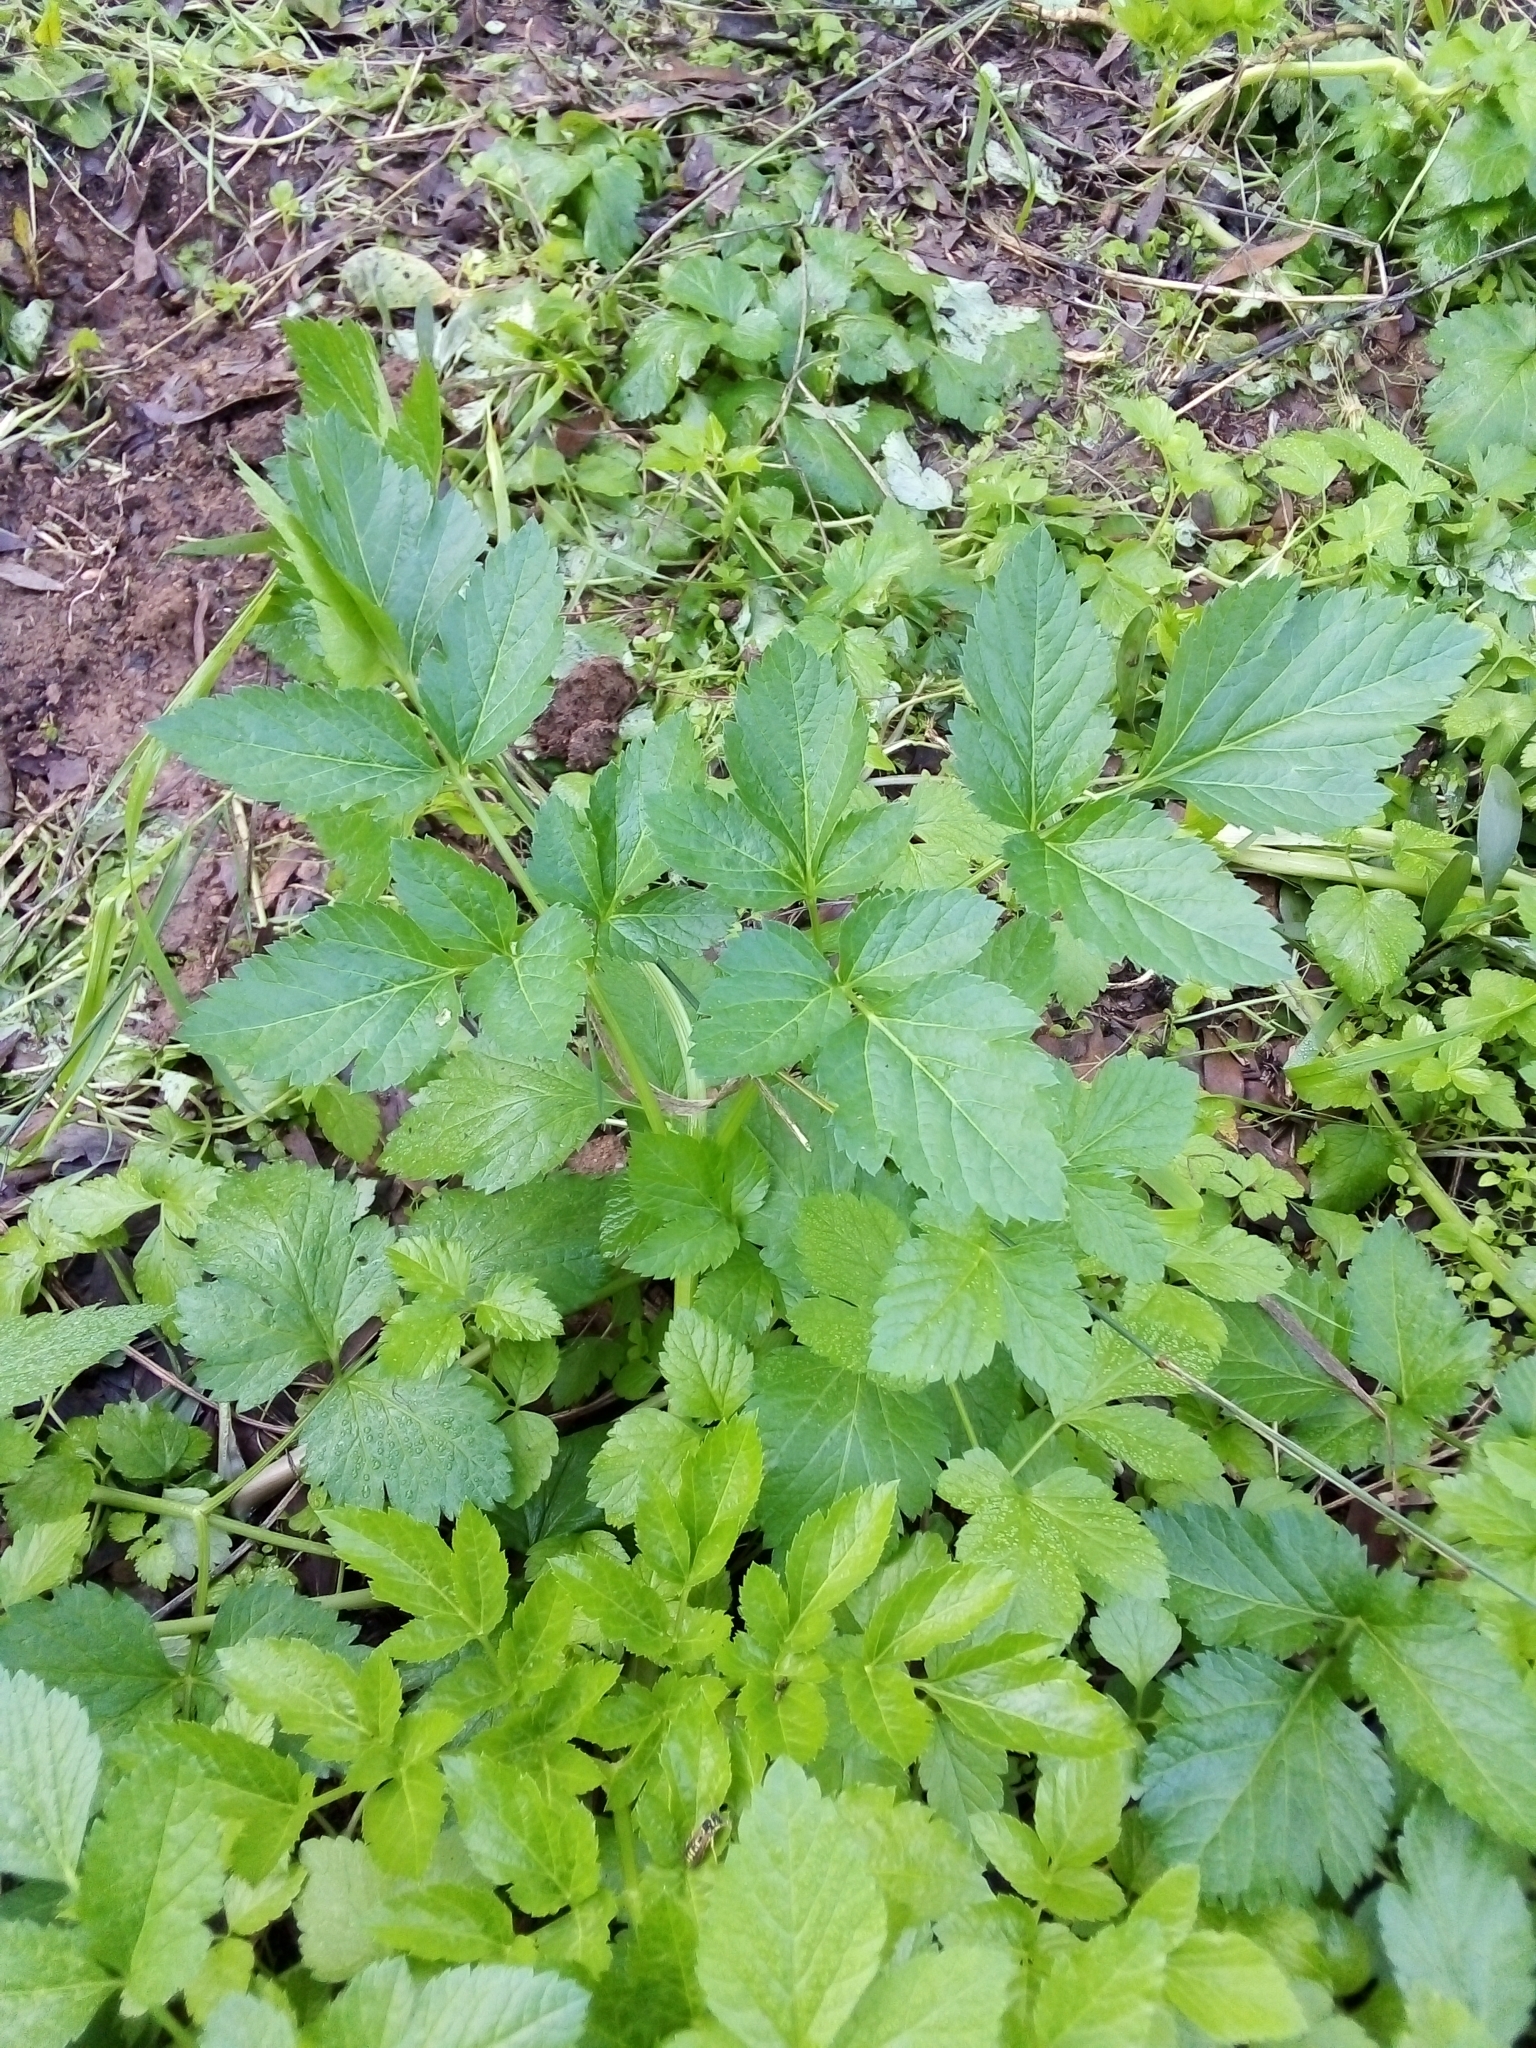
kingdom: Plantae
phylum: Tracheophyta
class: Magnoliopsida
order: Apiales
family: Apiaceae
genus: Smyrnium
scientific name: Smyrnium olusatrum
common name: Alexanders
